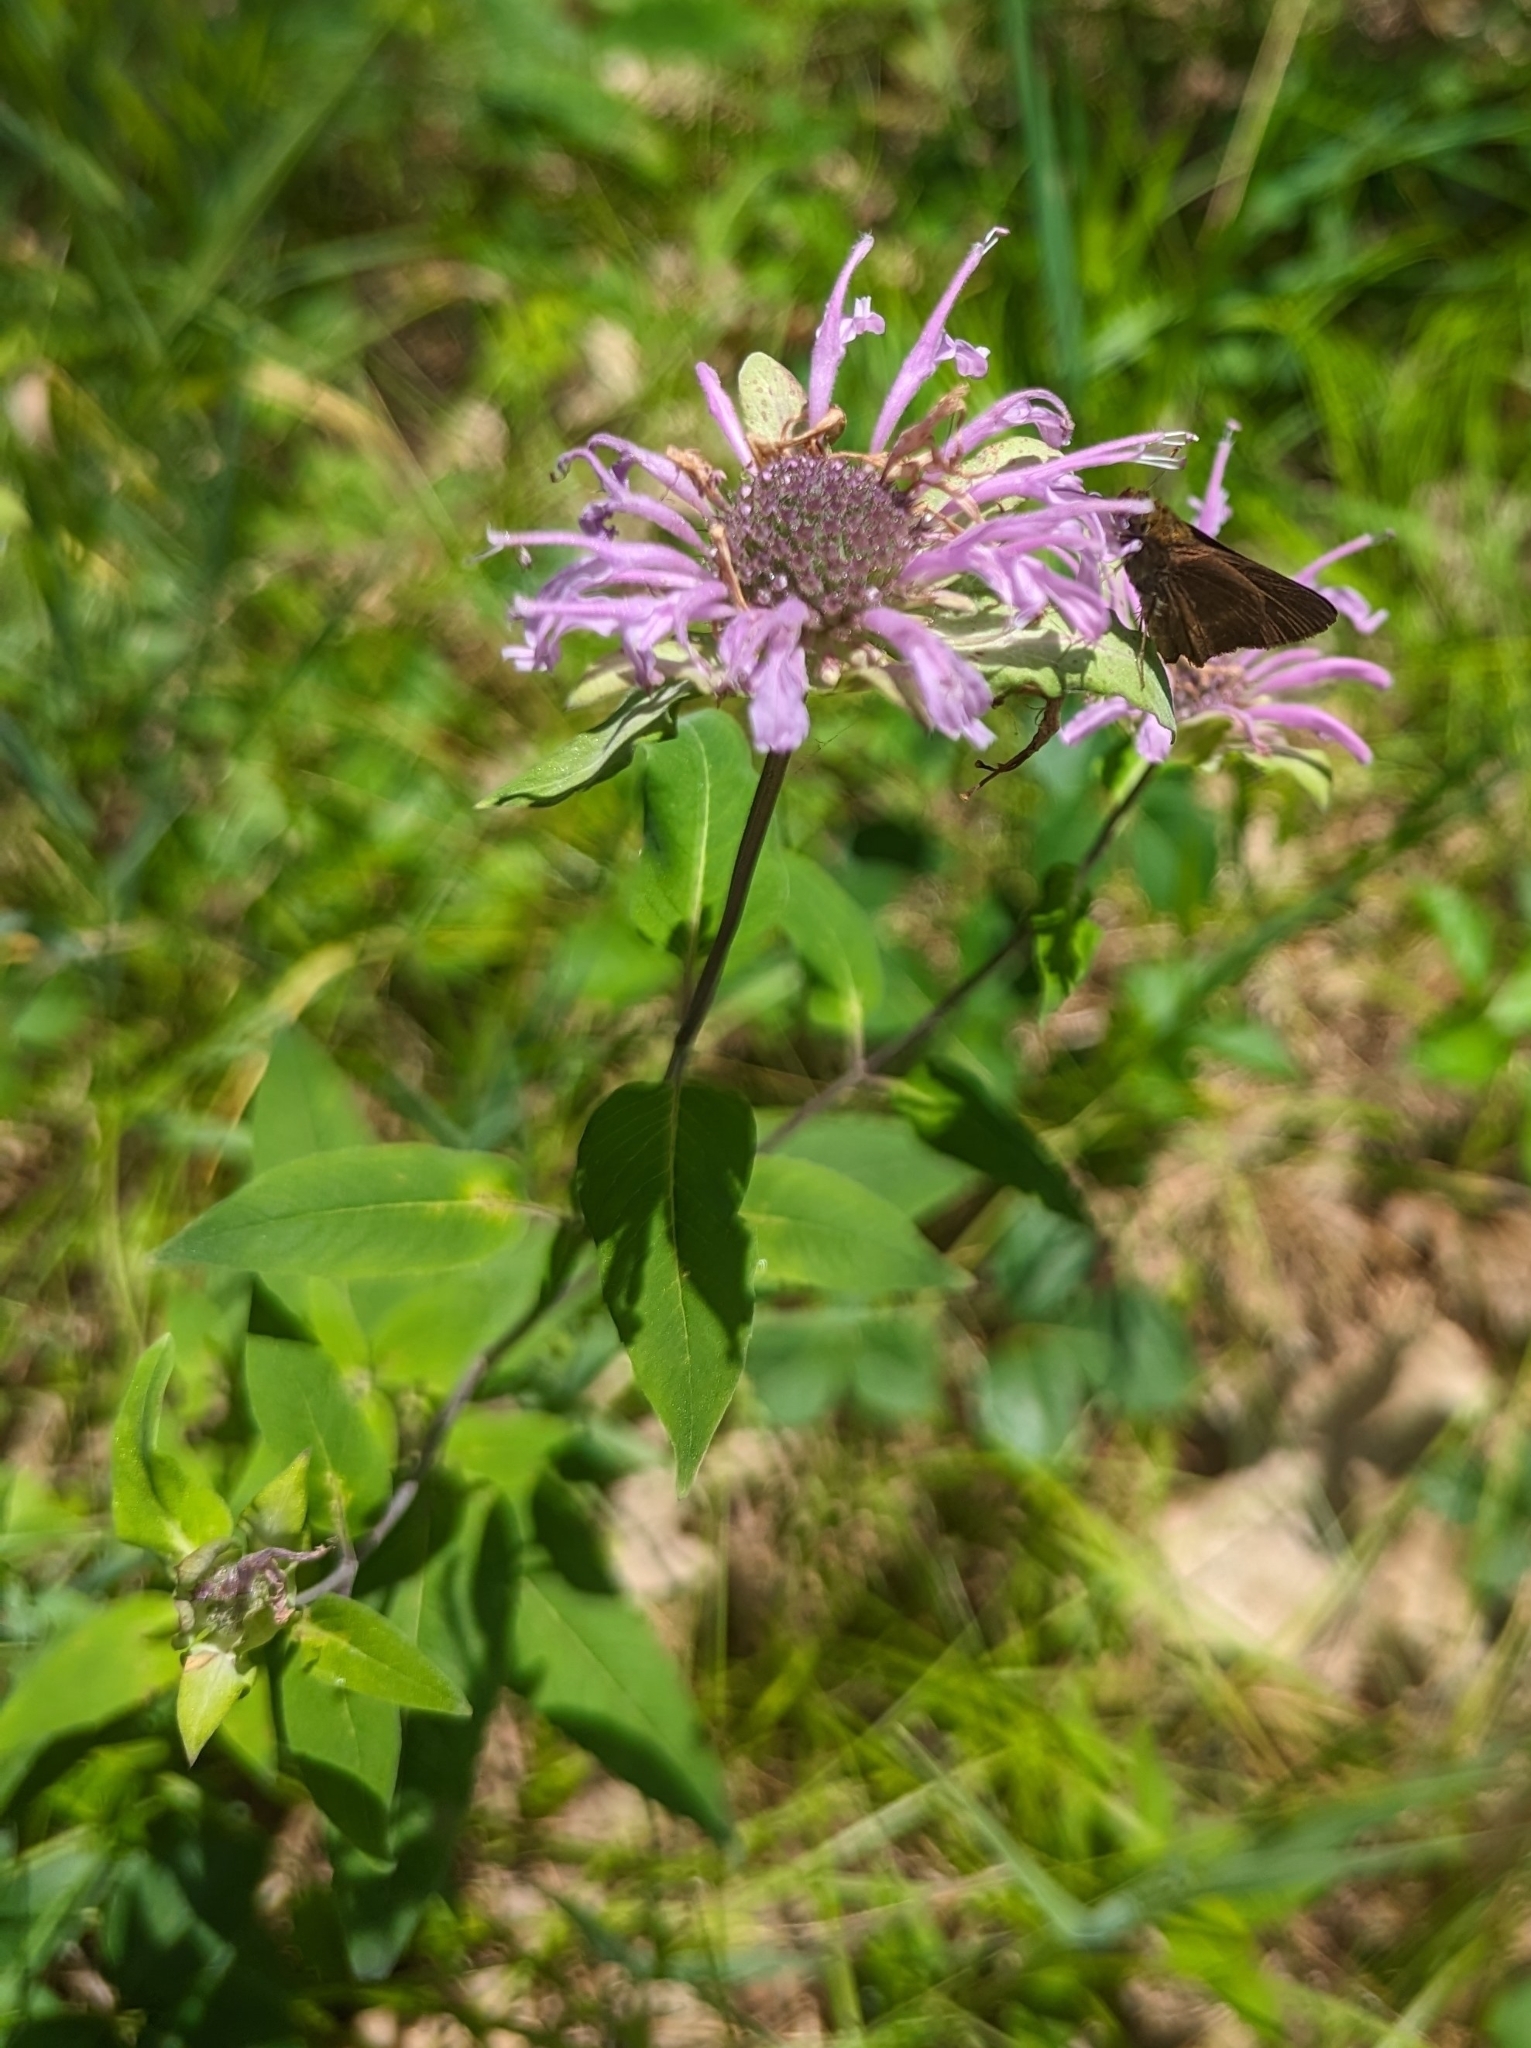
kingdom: Plantae
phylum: Tracheophyta
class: Magnoliopsida
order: Lamiales
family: Lamiaceae
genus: Monarda
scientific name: Monarda fistulosa
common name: Purple beebalm
